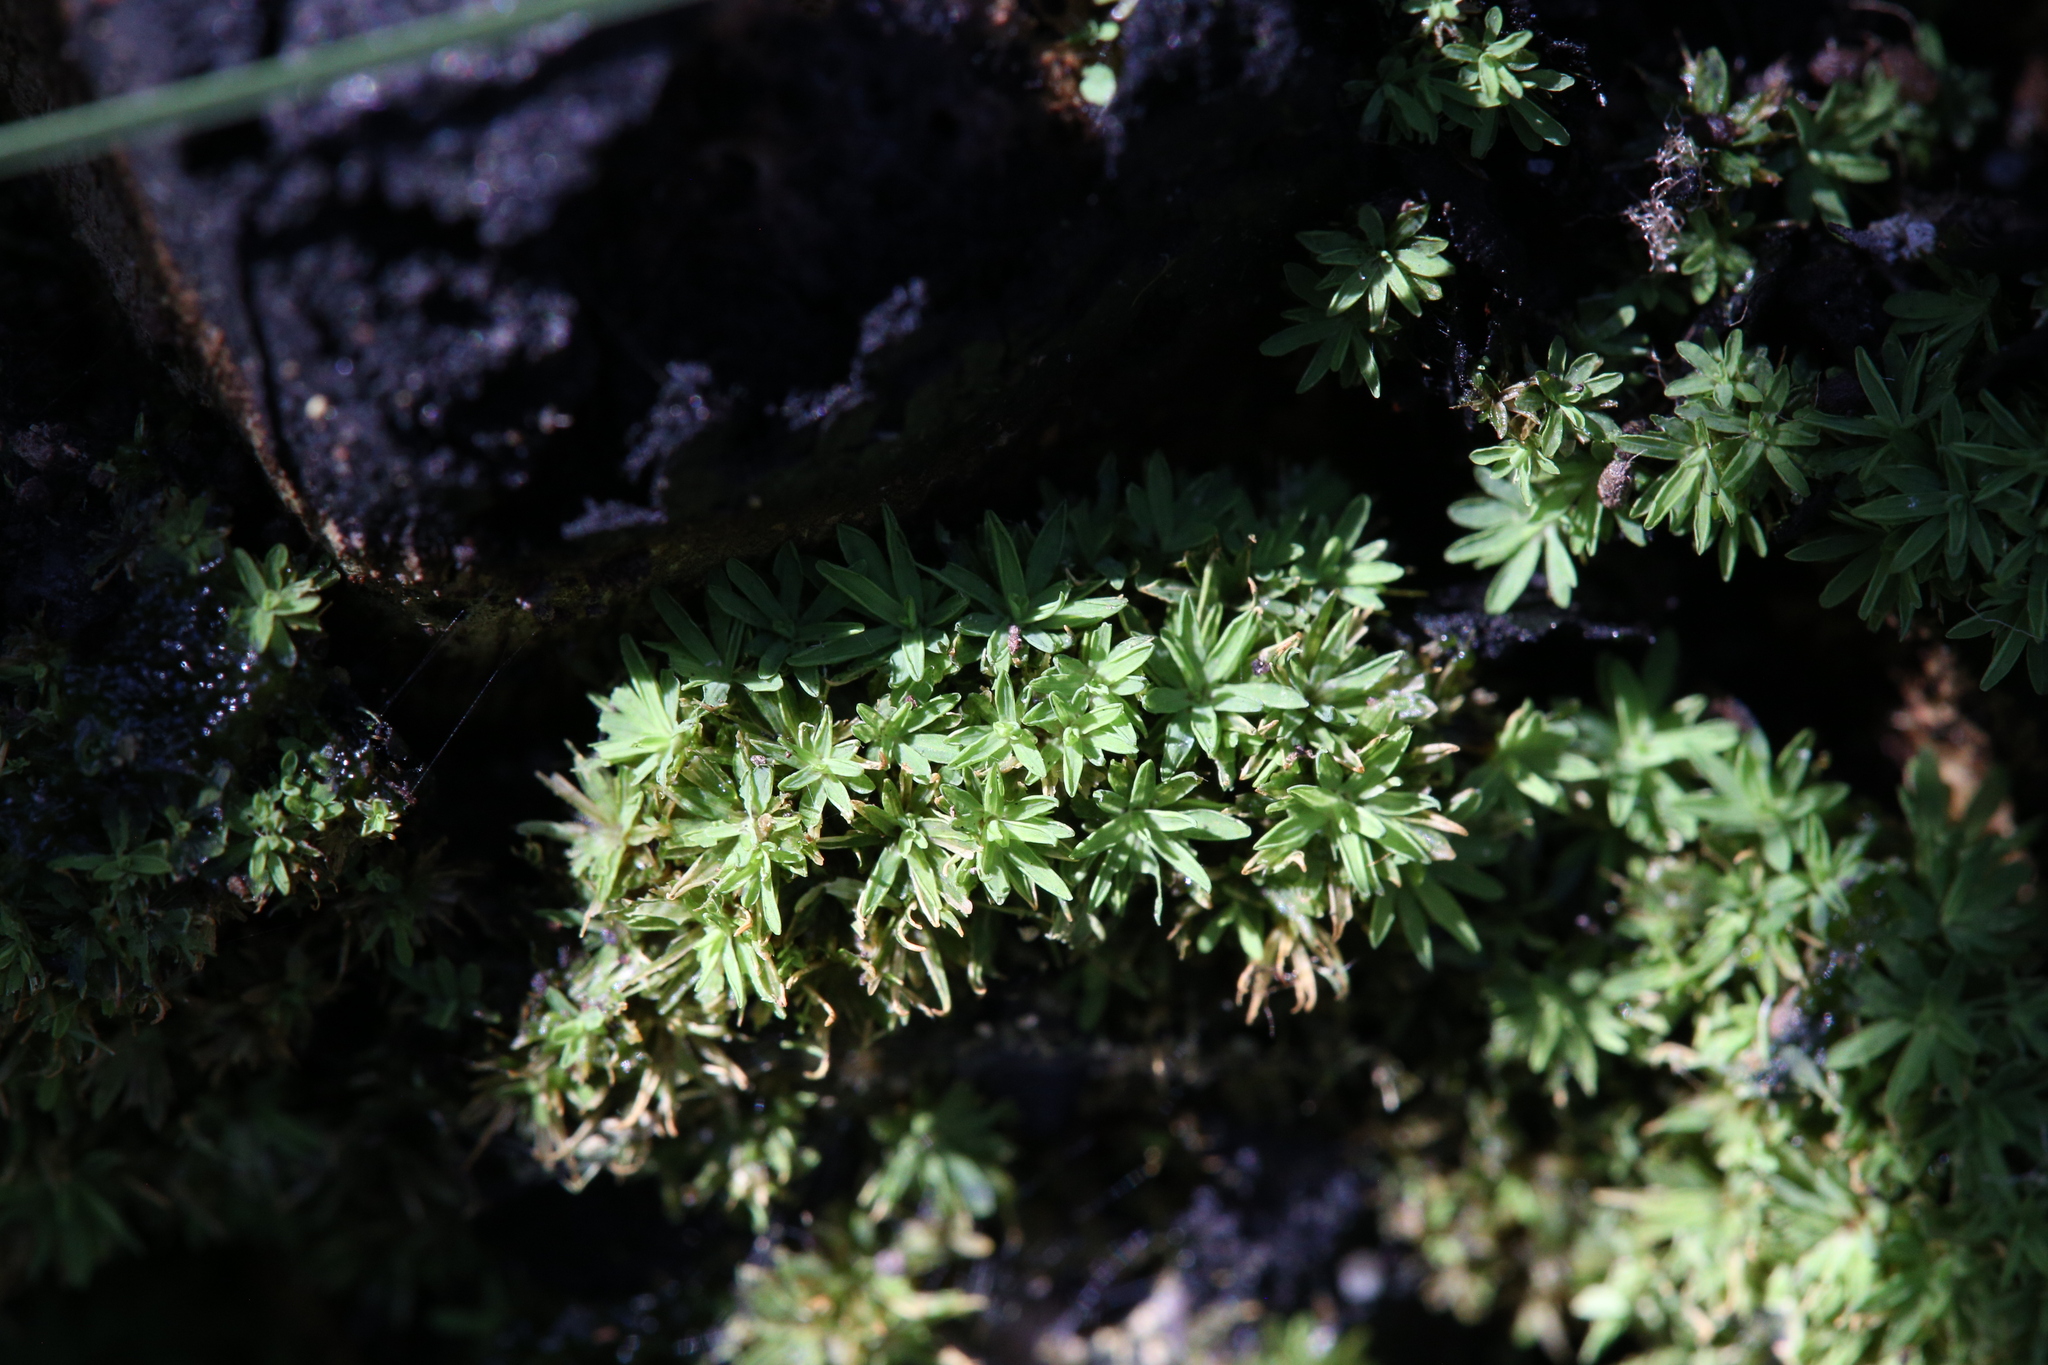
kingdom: Plantae
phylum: Bryophyta
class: Bryopsida
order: Pottiales
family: Pottiaceae
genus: Calymperastrum
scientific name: Calymperastrum latifolium
